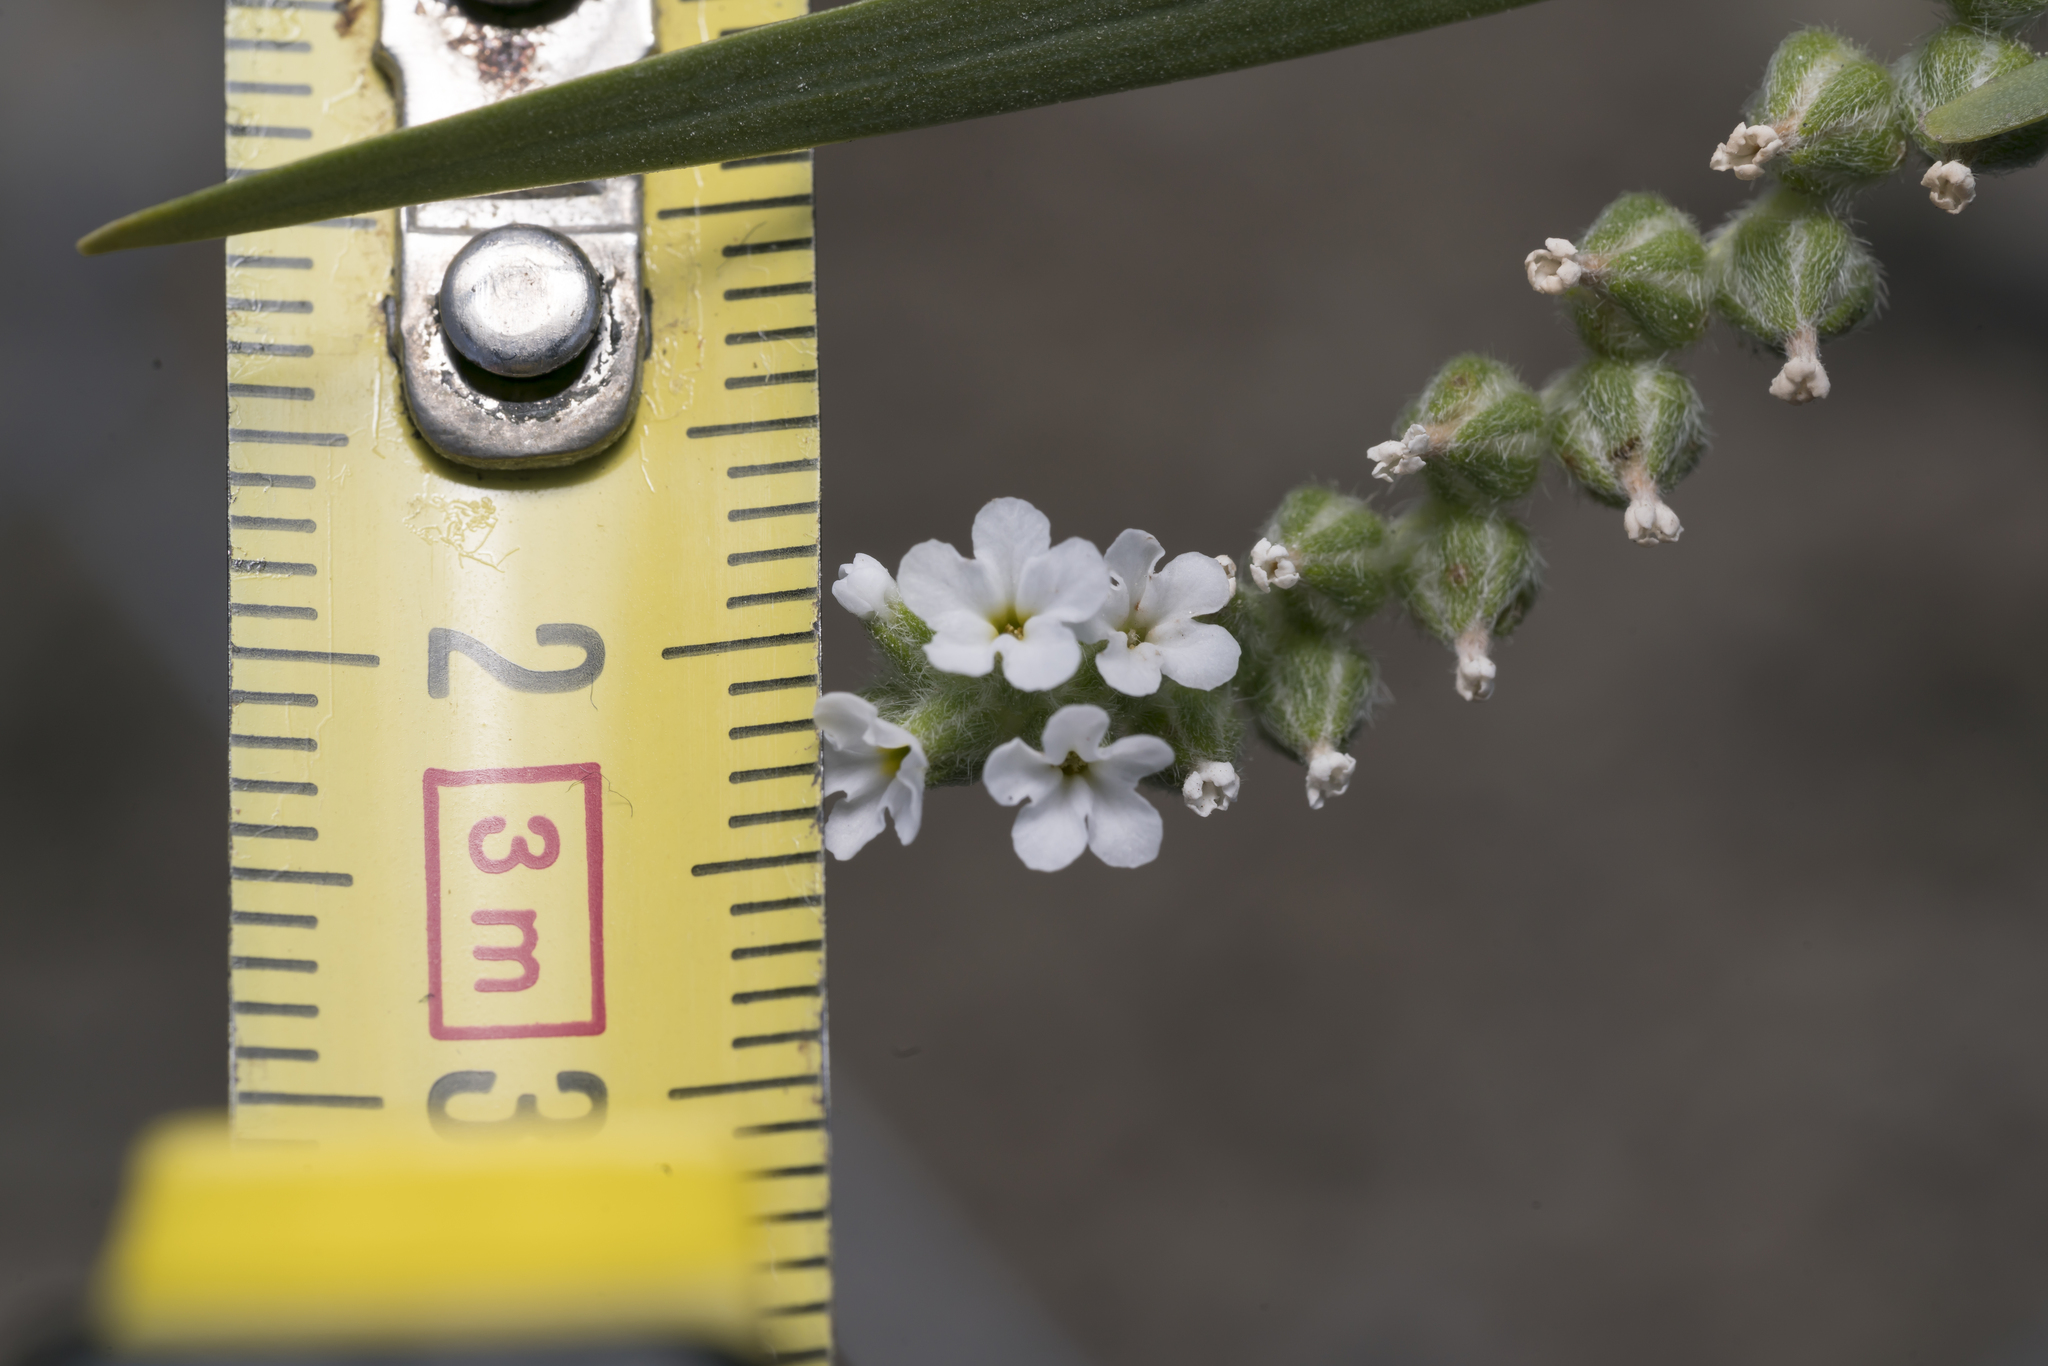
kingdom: Plantae
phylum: Tracheophyta
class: Magnoliopsida
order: Boraginales
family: Heliotropiaceae
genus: Heliotropium
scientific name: Heliotropium dolosum
